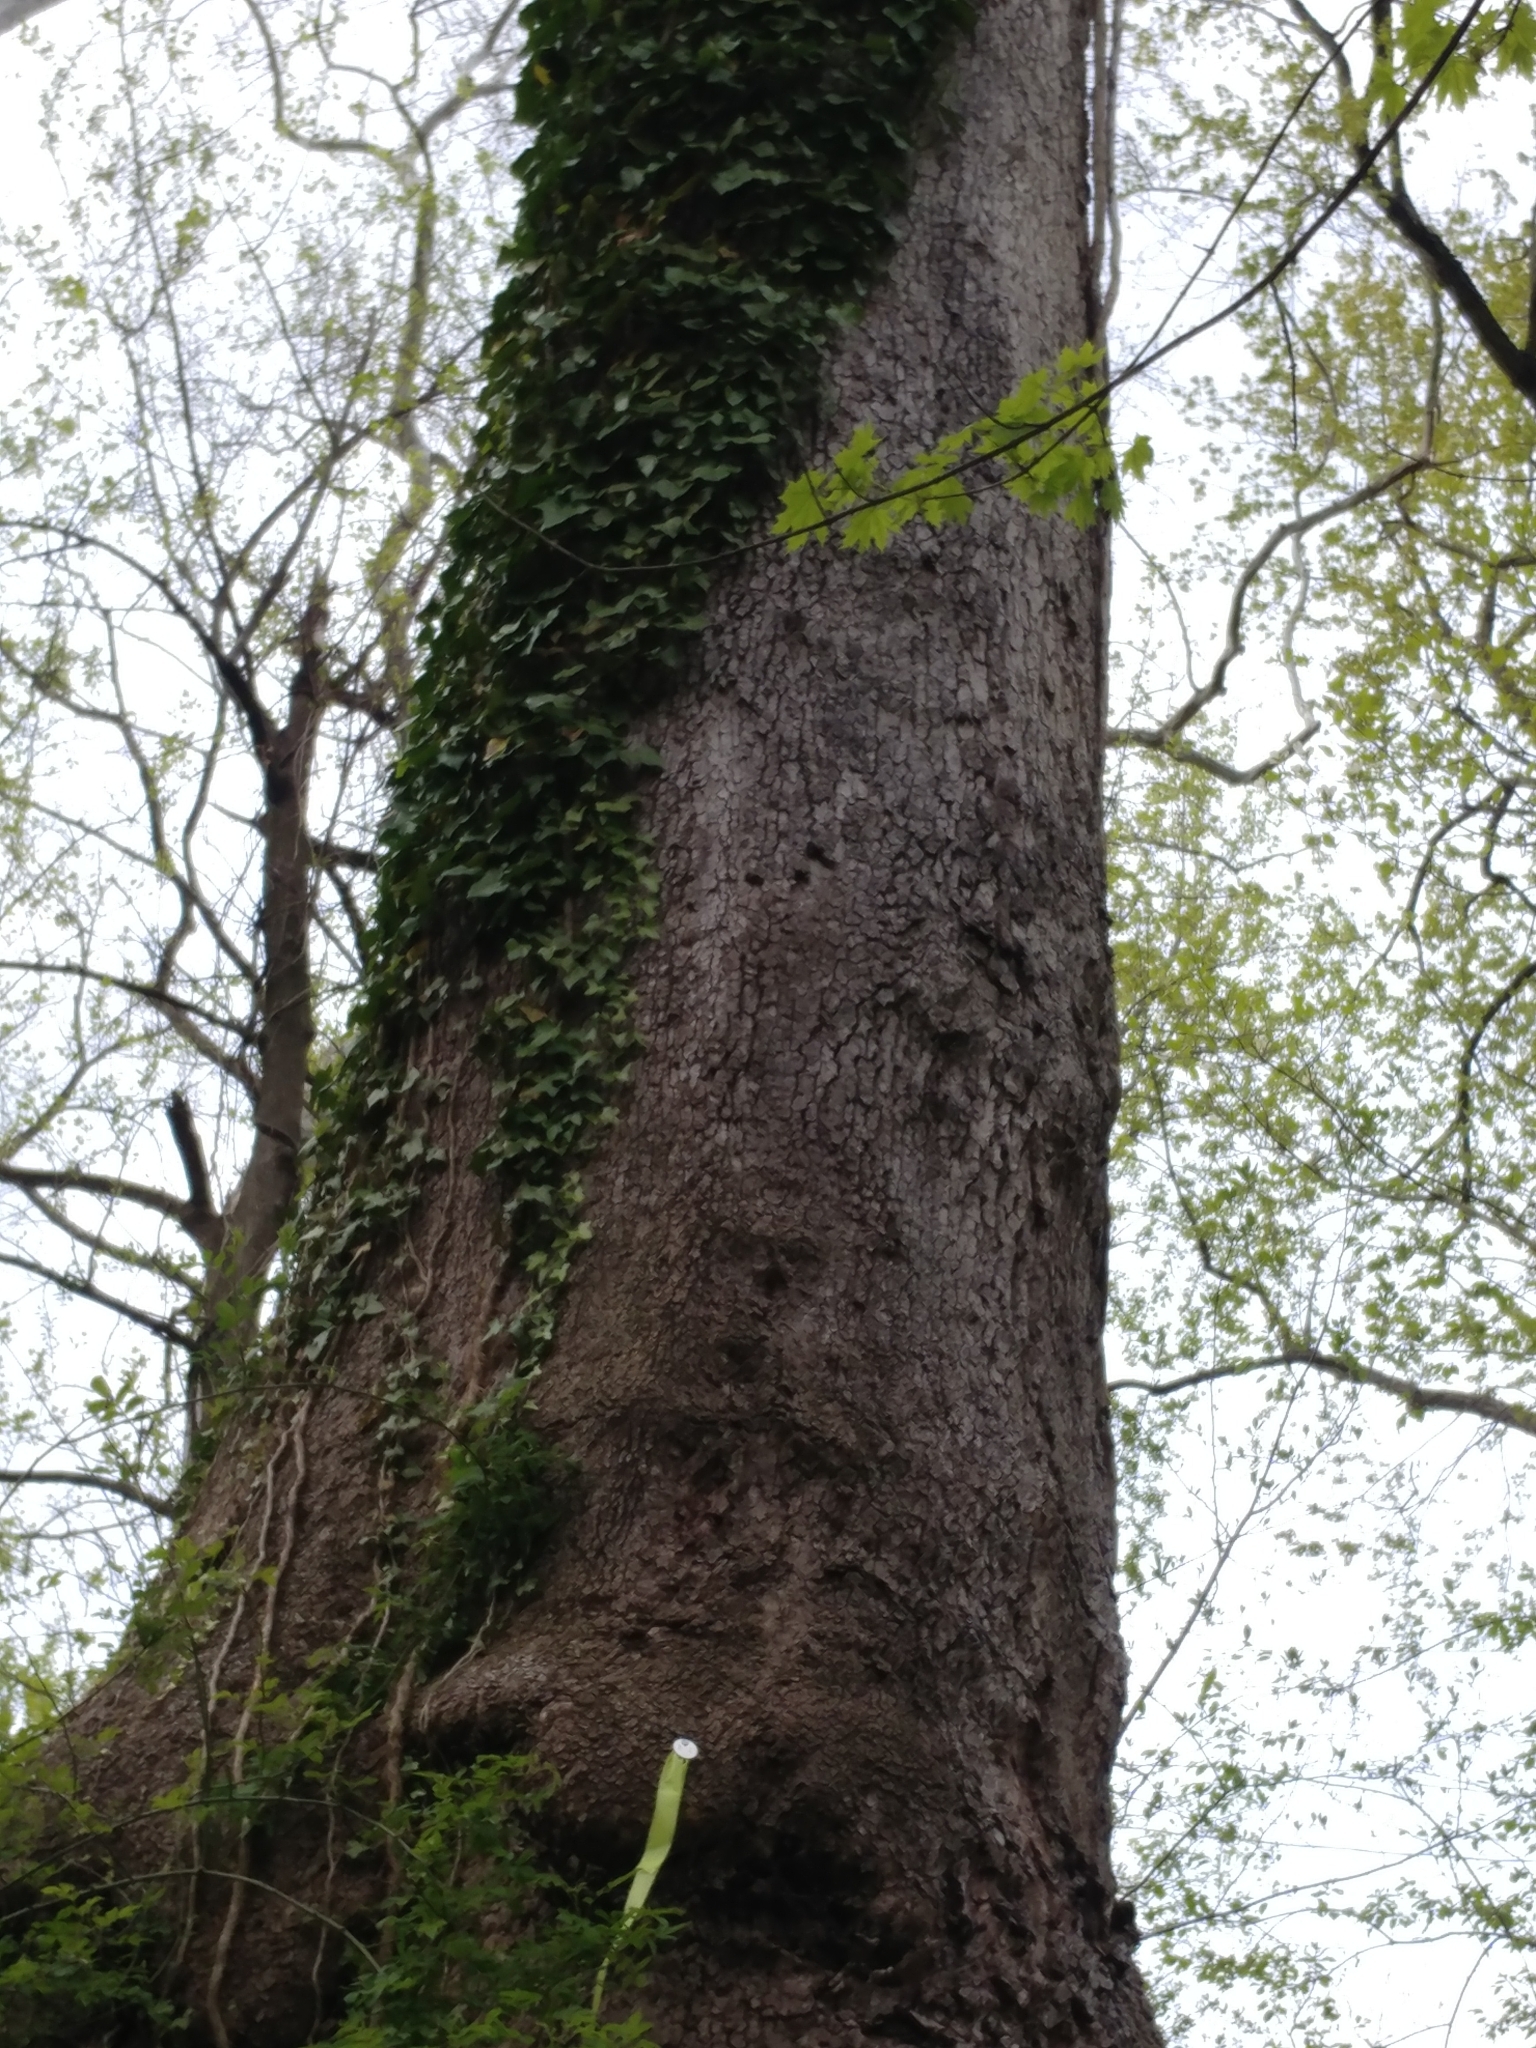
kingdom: Plantae
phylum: Tracheophyta
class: Magnoliopsida
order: Proteales
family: Platanaceae
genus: Platanus
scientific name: Platanus occidentalis
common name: American sycamore
